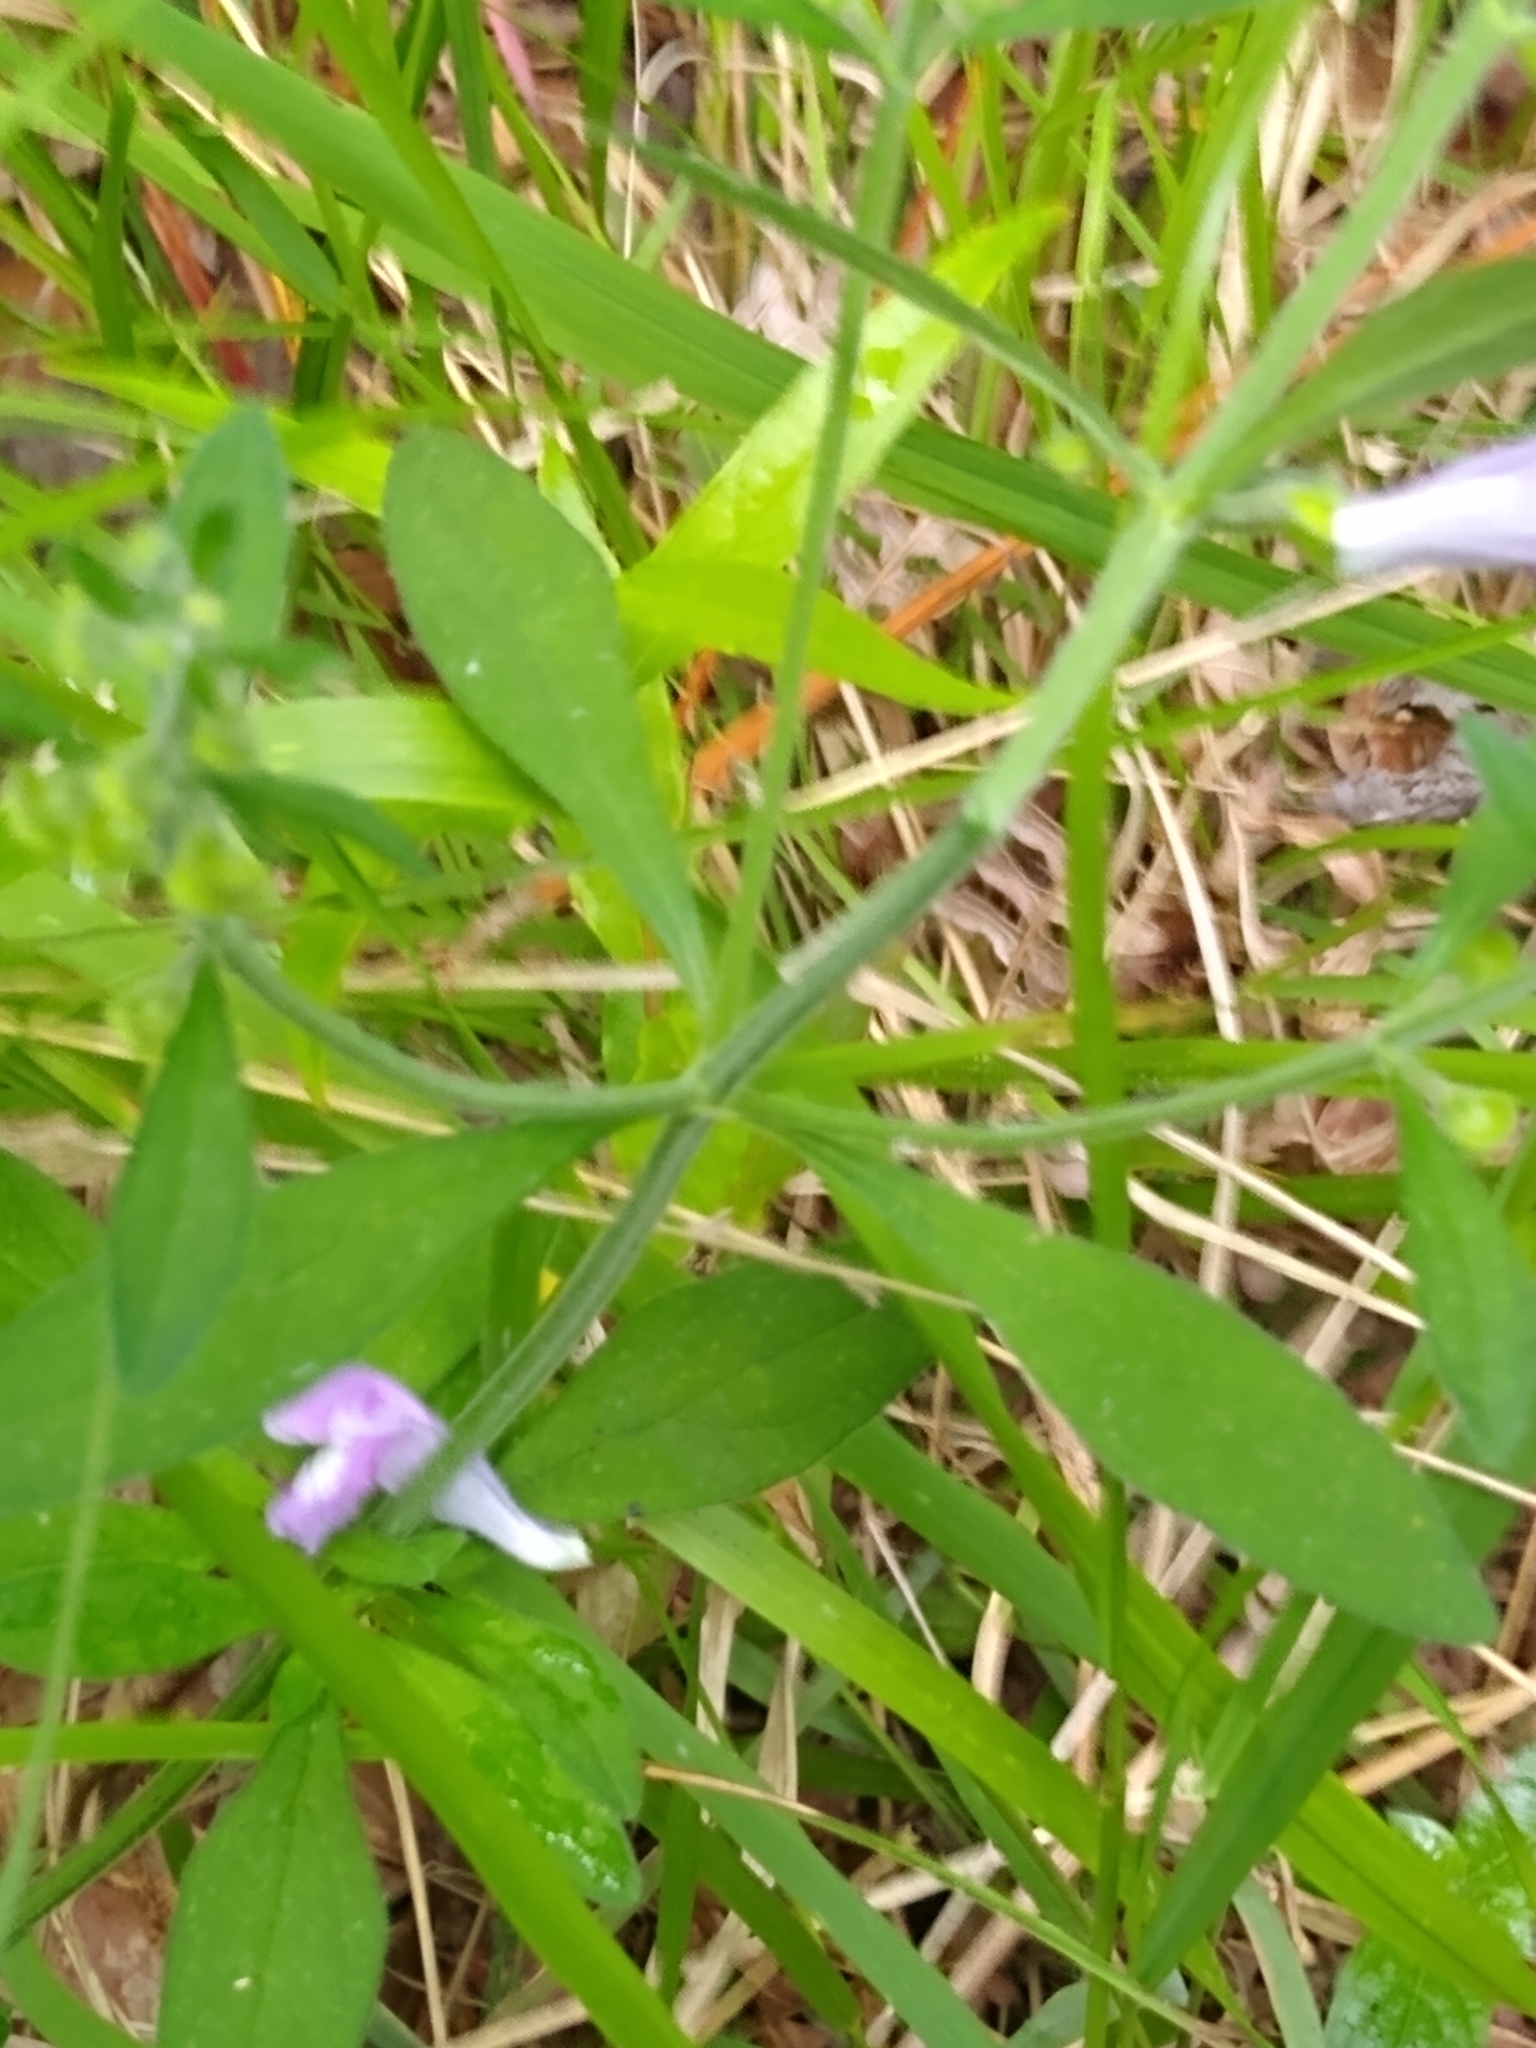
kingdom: Plantae
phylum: Tracheophyta
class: Magnoliopsida
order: Lamiales
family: Lamiaceae
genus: Scutellaria
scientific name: Scutellaria integrifolia
